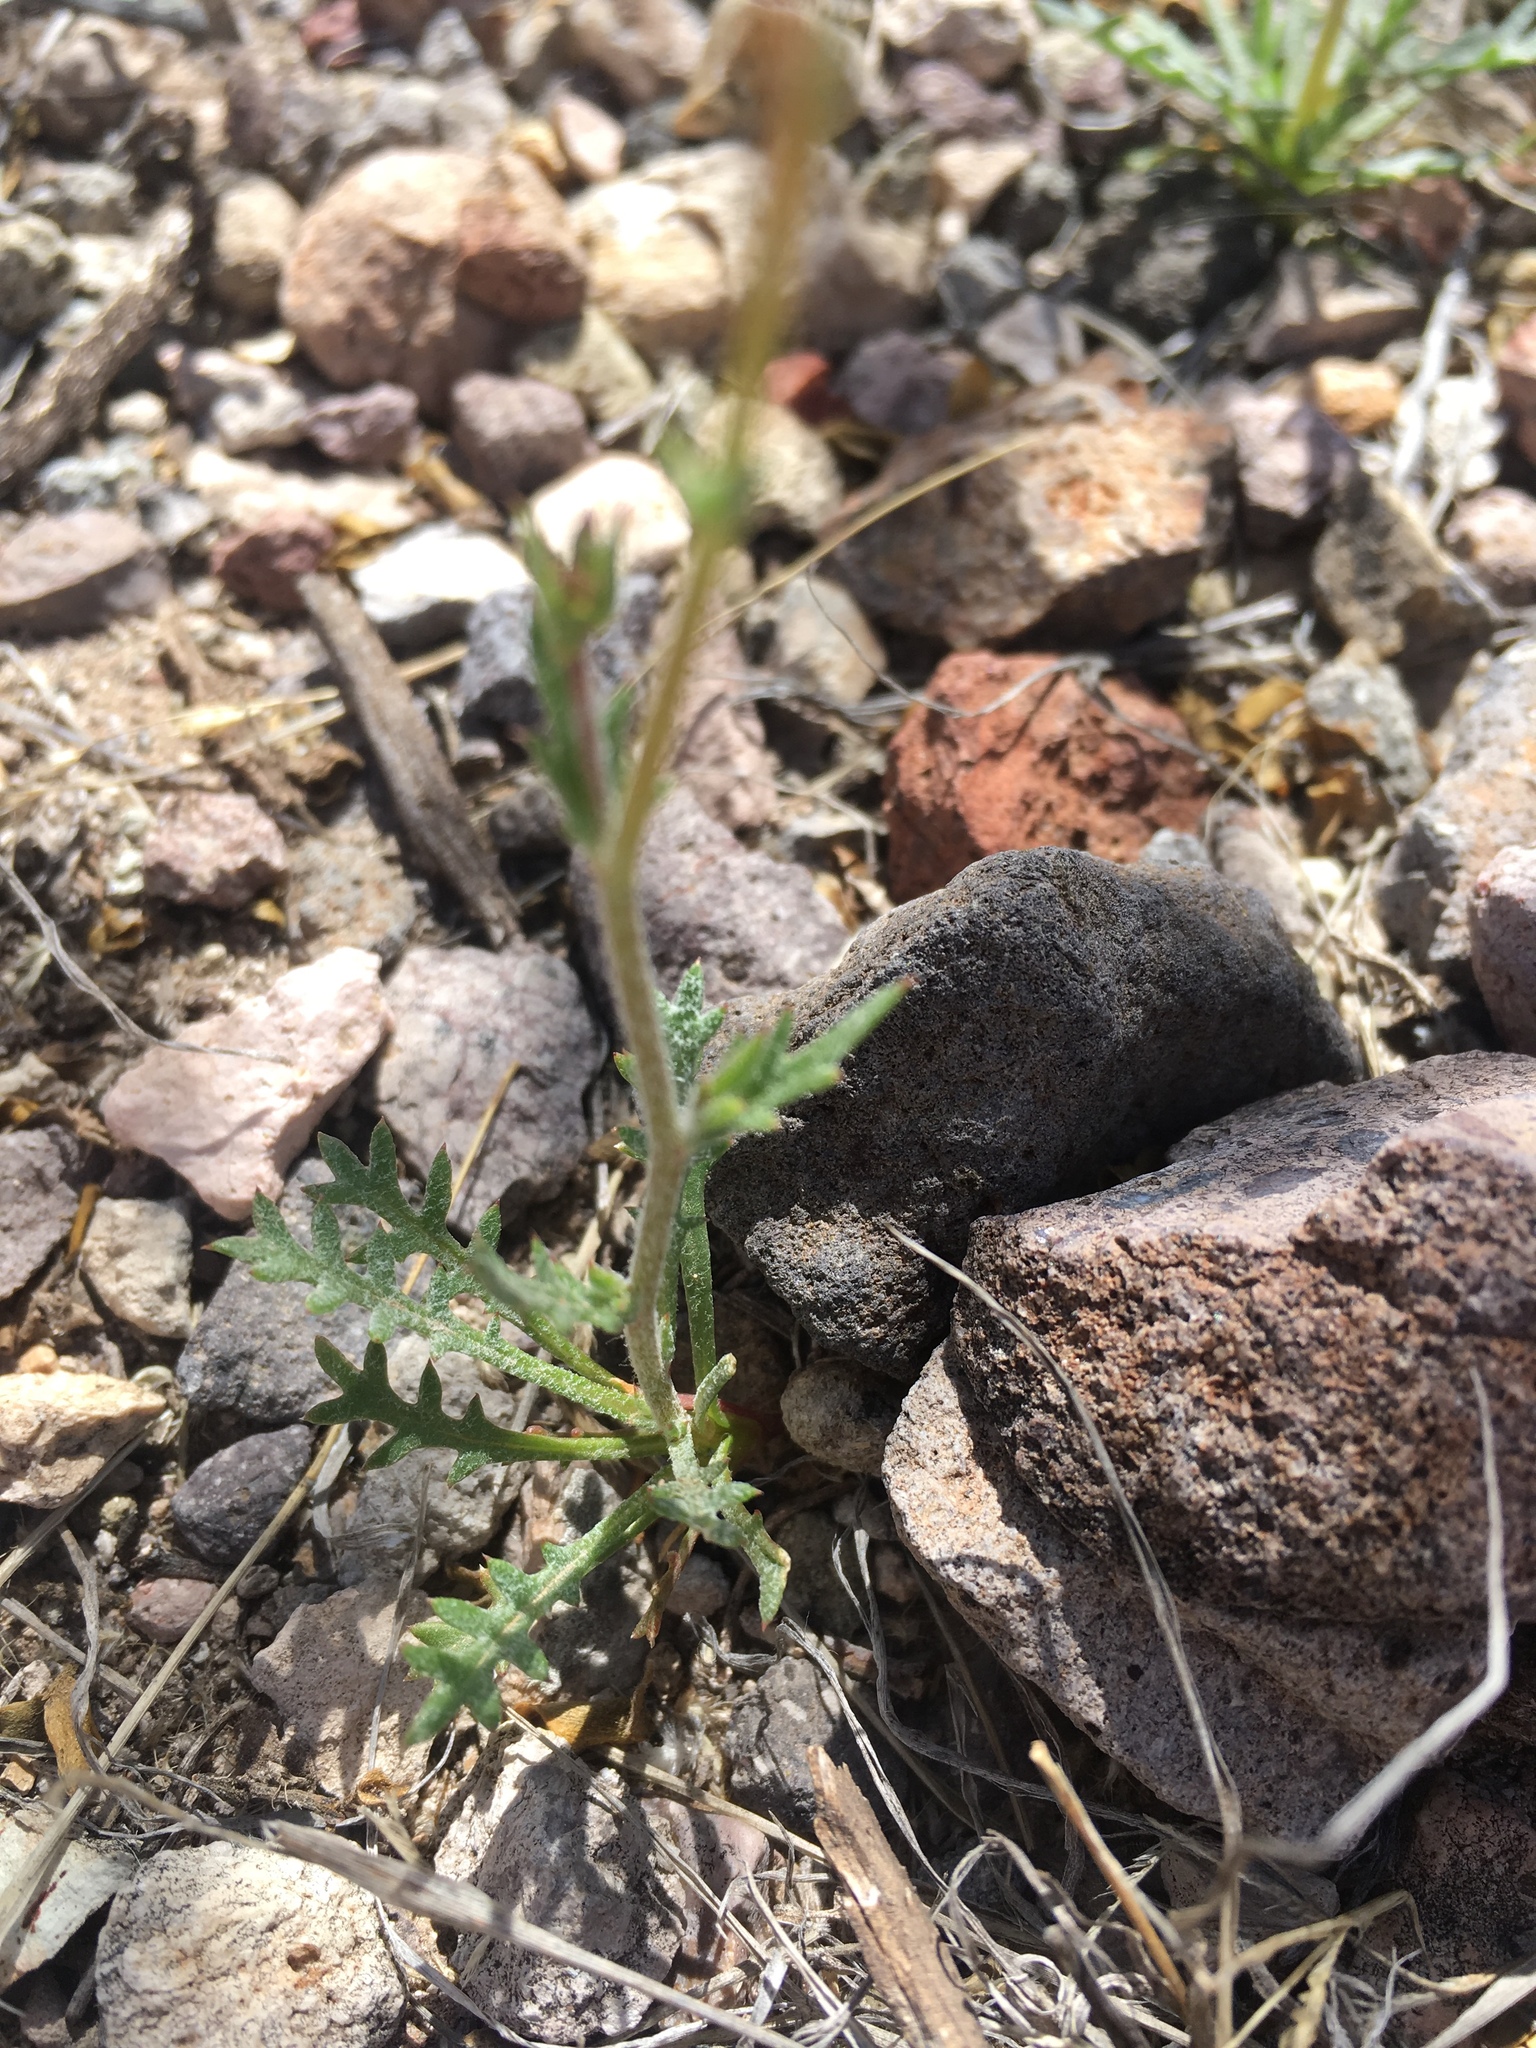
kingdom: Plantae
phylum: Tracheophyta
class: Magnoliopsida
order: Ericales
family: Polemoniaceae
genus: Gilia
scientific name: Gilia mexicana
